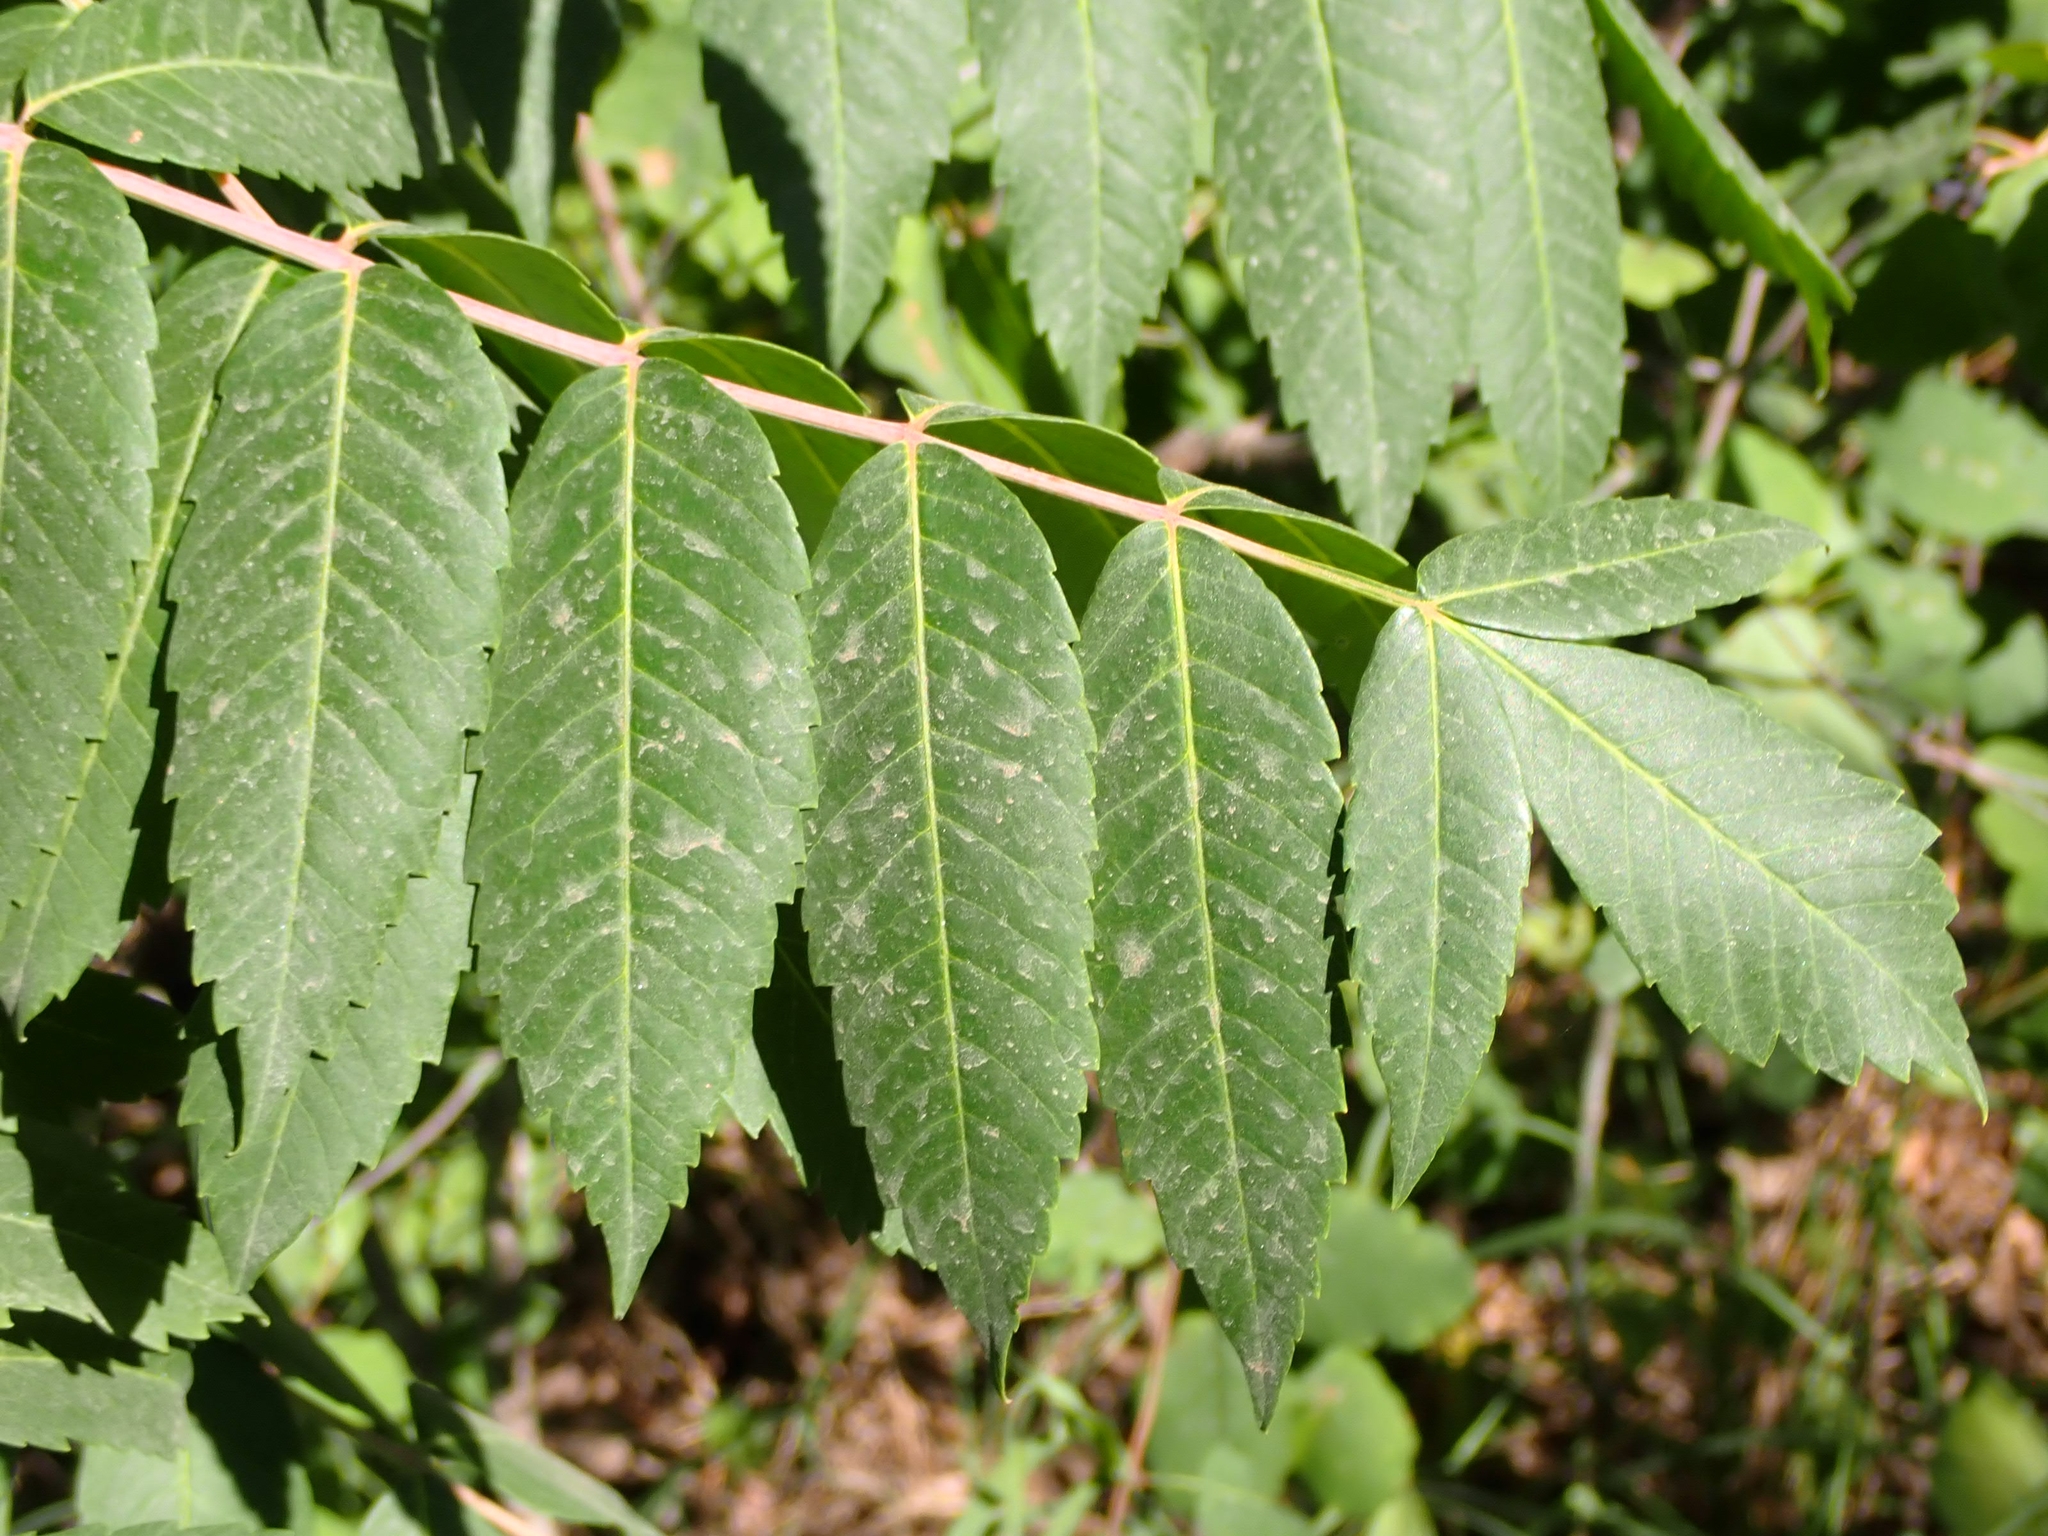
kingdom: Plantae
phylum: Tracheophyta
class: Magnoliopsida
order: Sapindales
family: Anacardiaceae
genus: Rhus
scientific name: Rhus glabra
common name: Scarlet sumac
